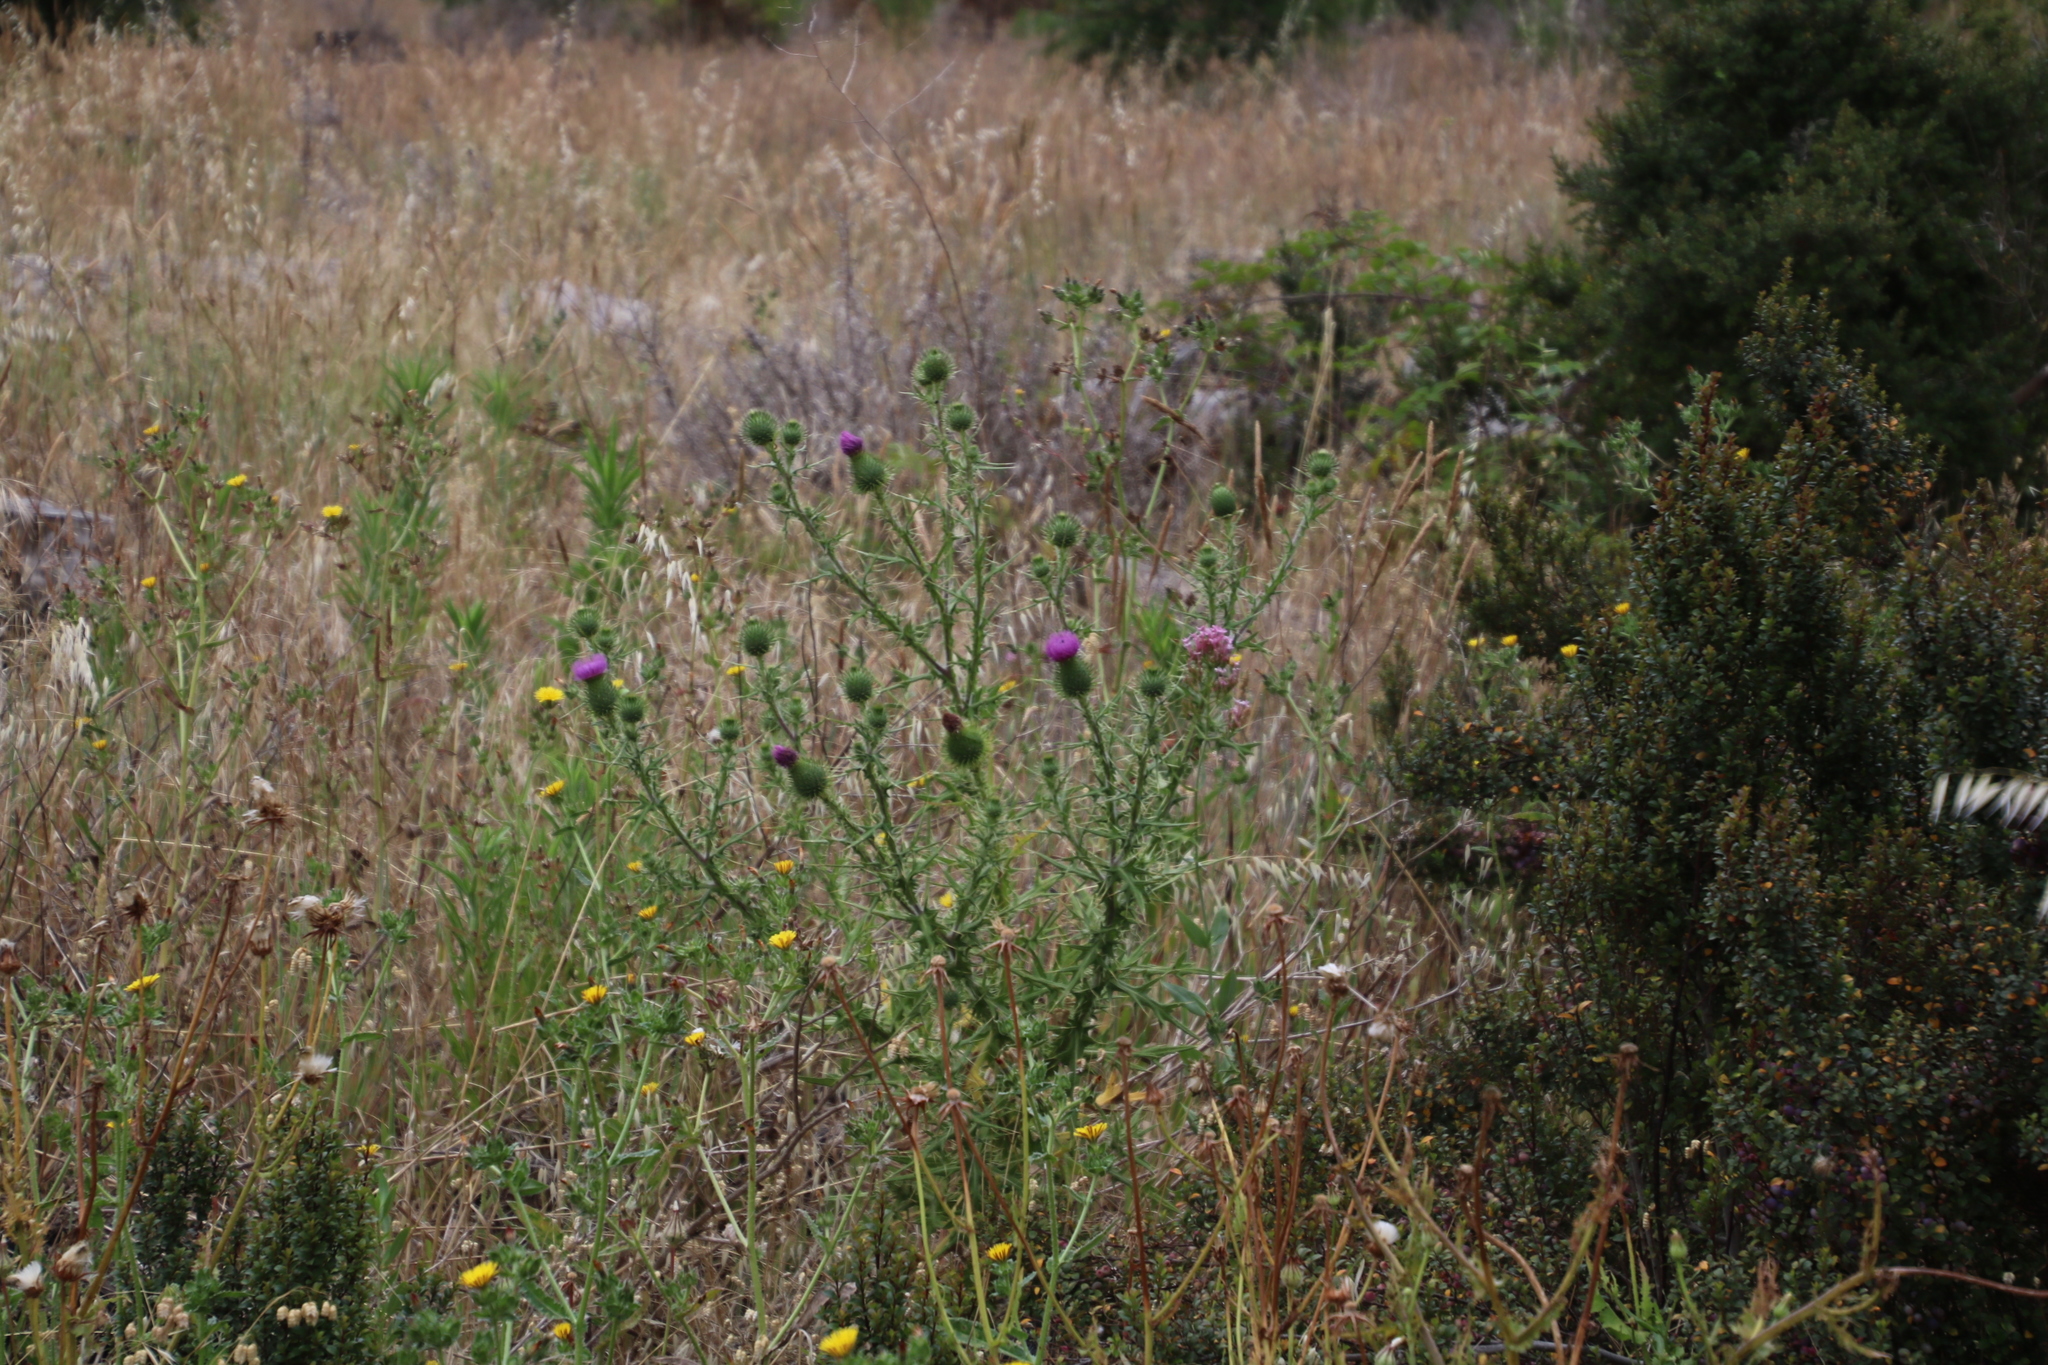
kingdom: Plantae
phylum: Tracheophyta
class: Magnoliopsida
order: Asterales
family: Asteraceae
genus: Cirsium
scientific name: Cirsium vulgare
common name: Bull thistle
